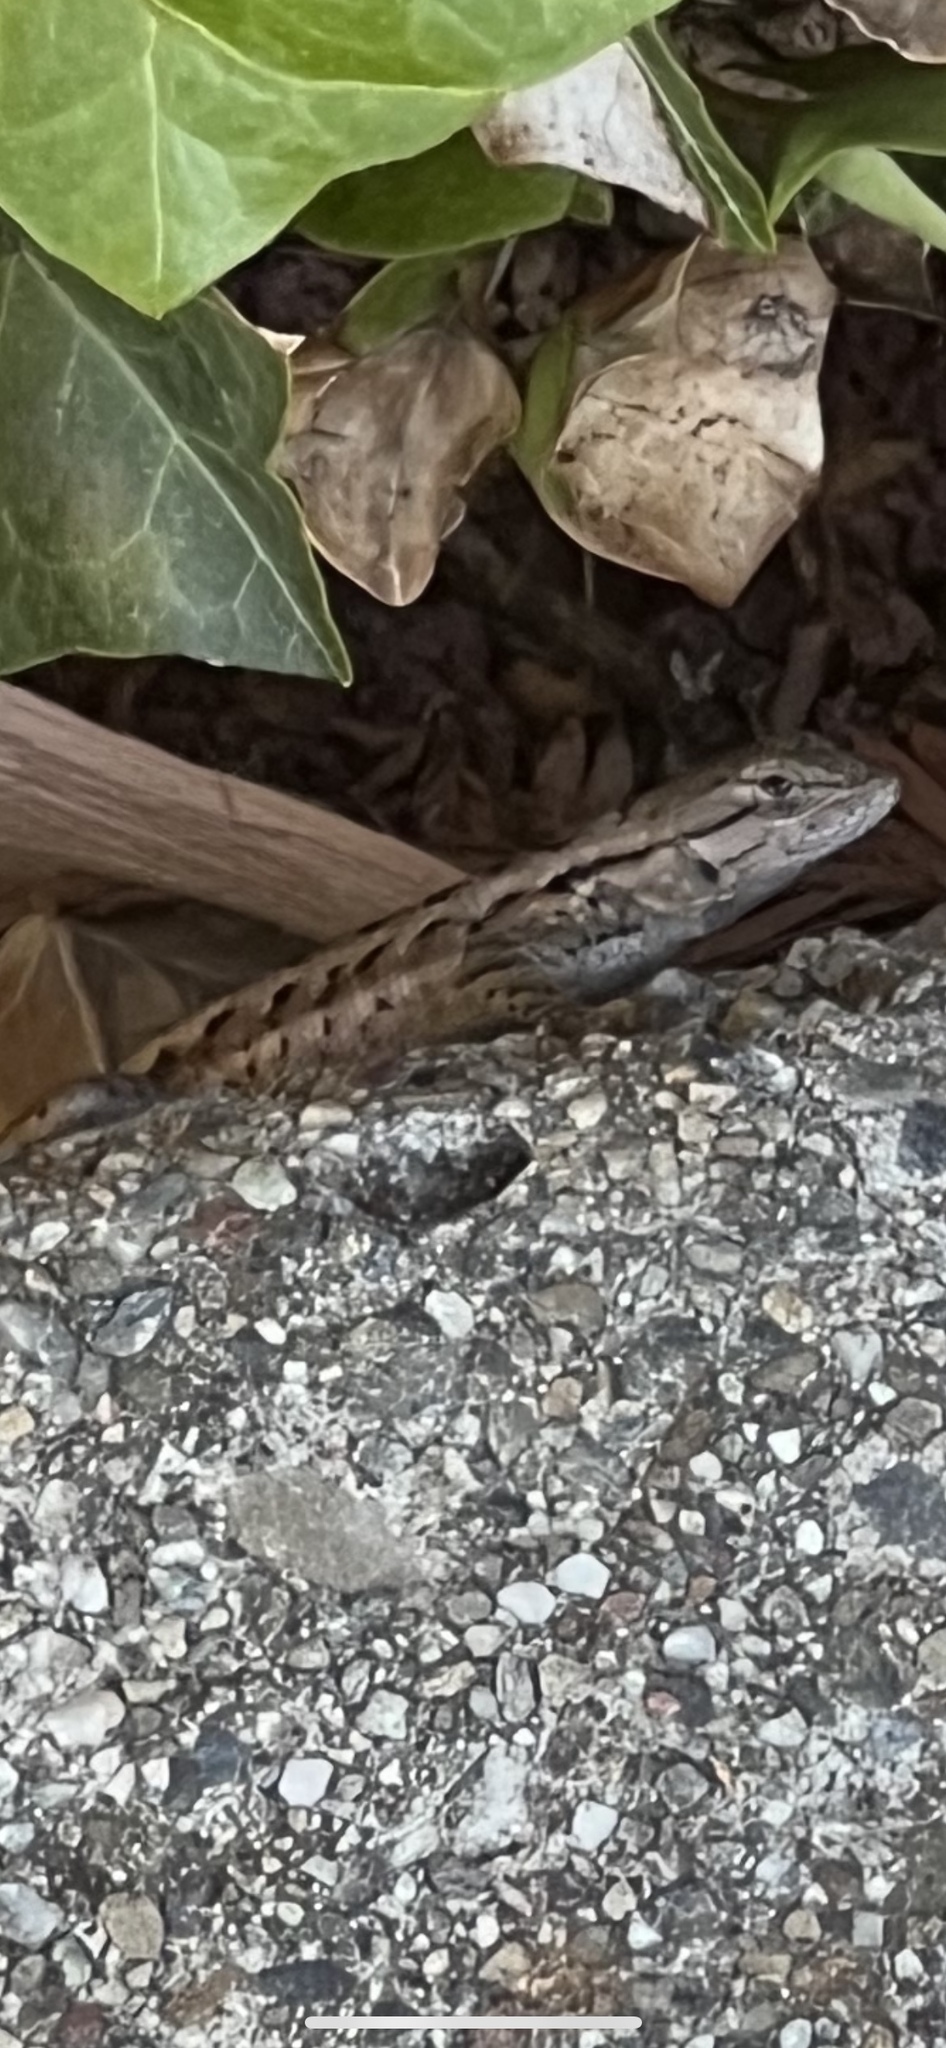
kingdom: Animalia
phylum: Chordata
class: Squamata
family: Phrynosomatidae
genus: Sceloporus
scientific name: Sceloporus occidentalis
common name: Western fence lizard
